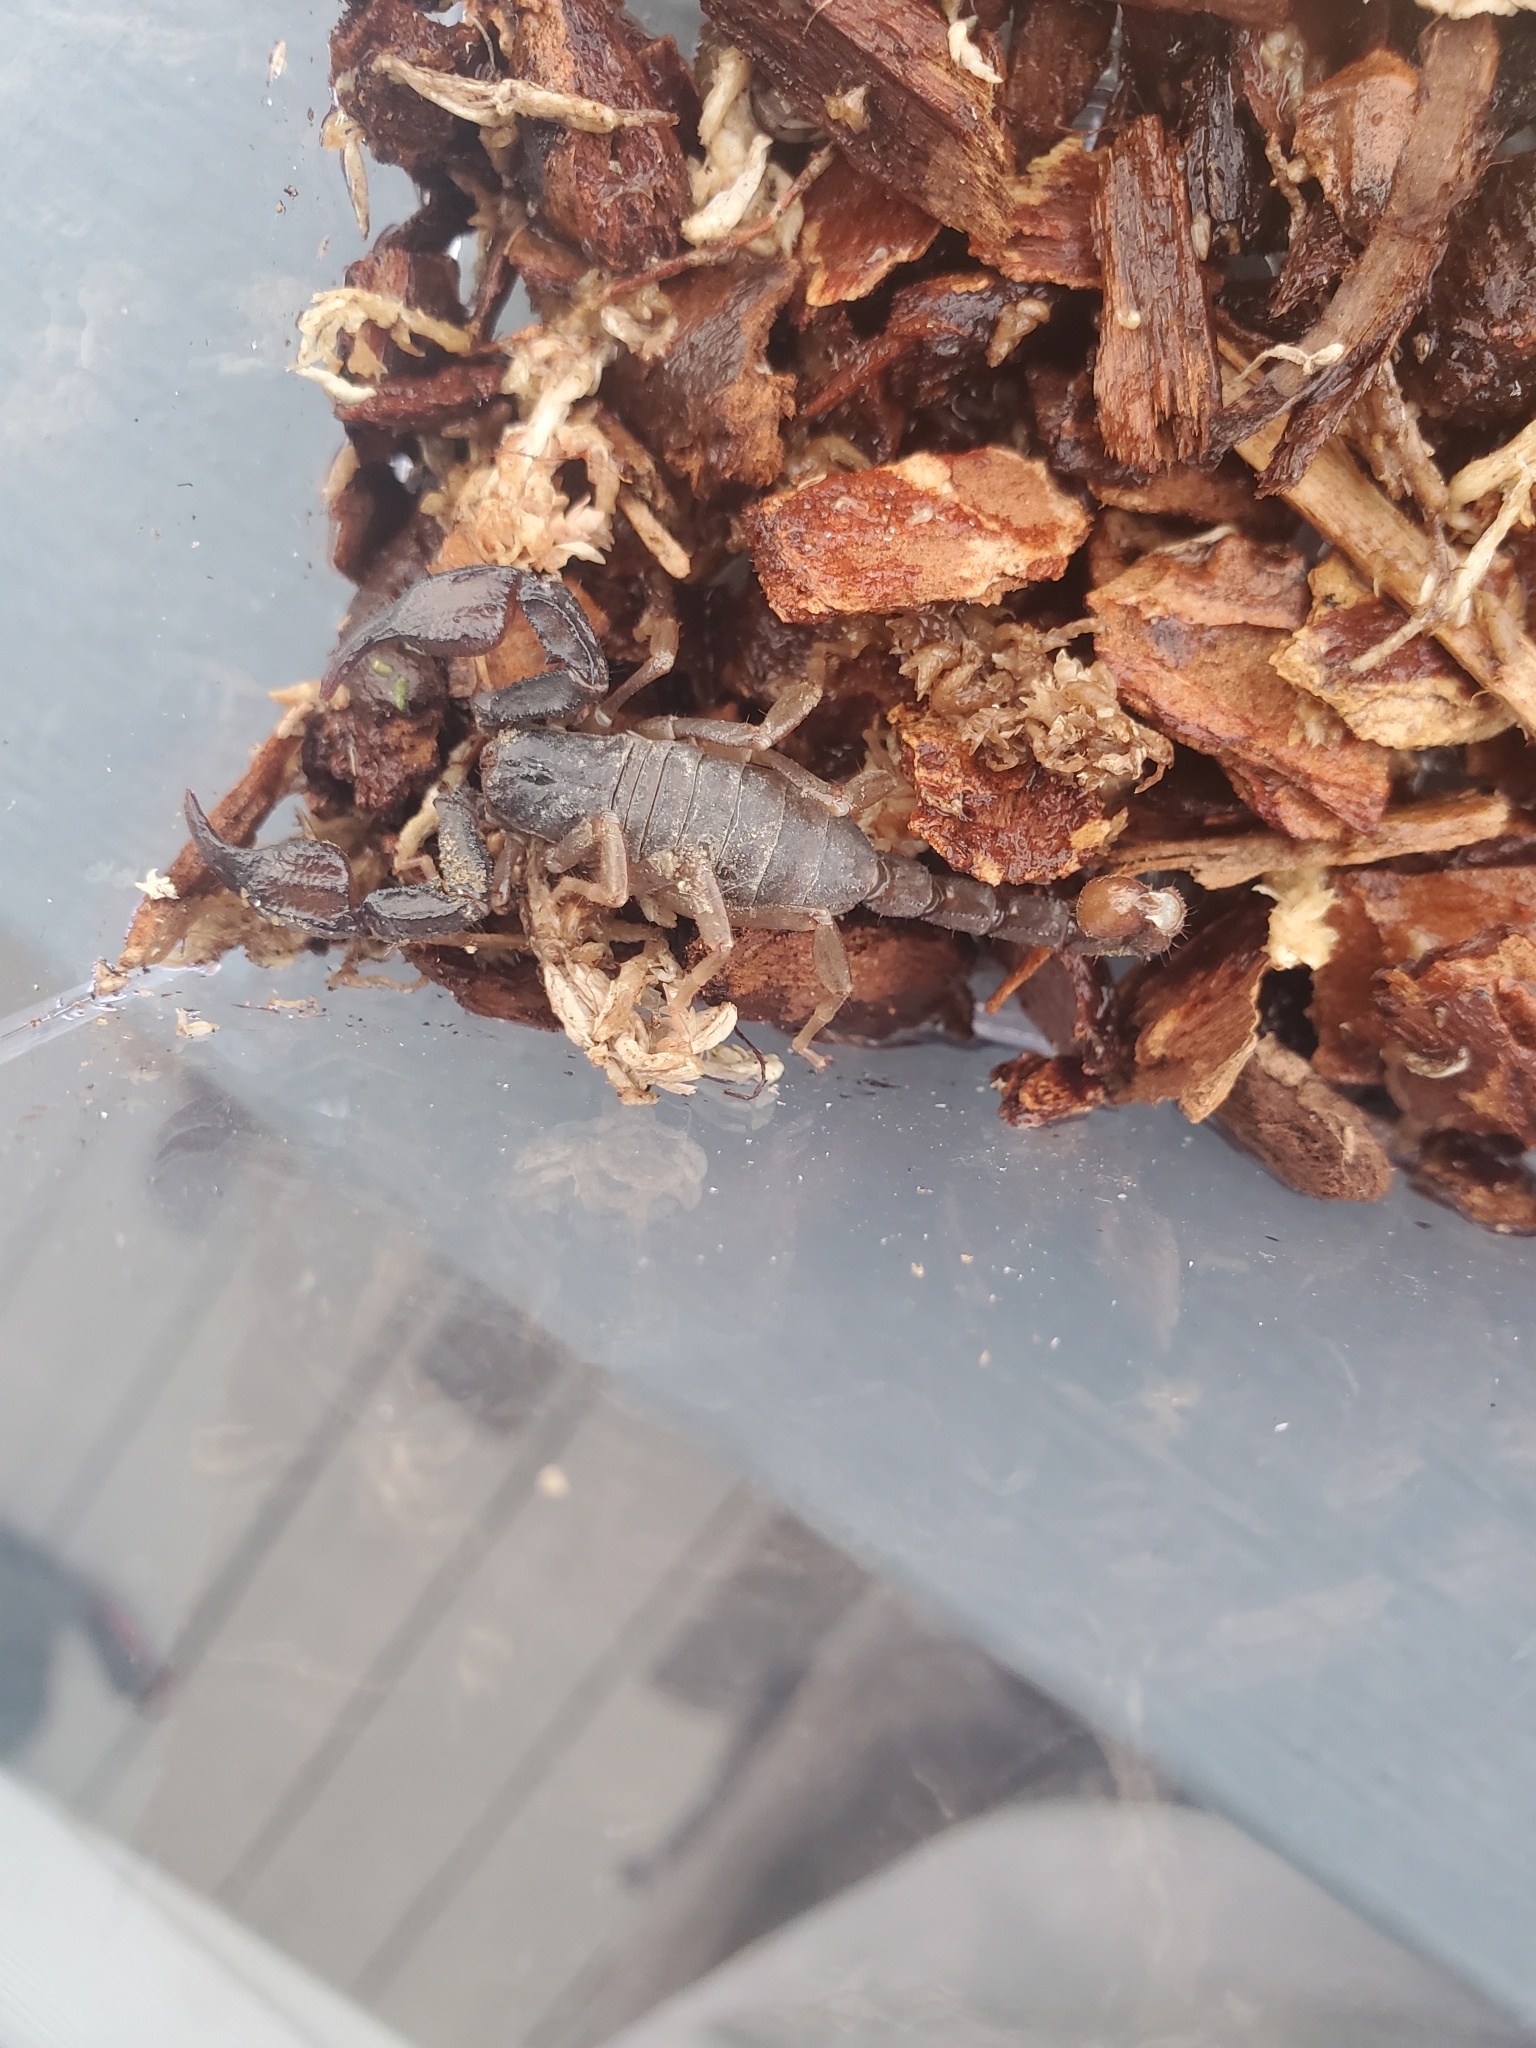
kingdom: Animalia
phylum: Arthropoda
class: Arachnida
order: Scorpiones
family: Chactidae
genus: Uroctonus
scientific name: Uroctonus mordax
